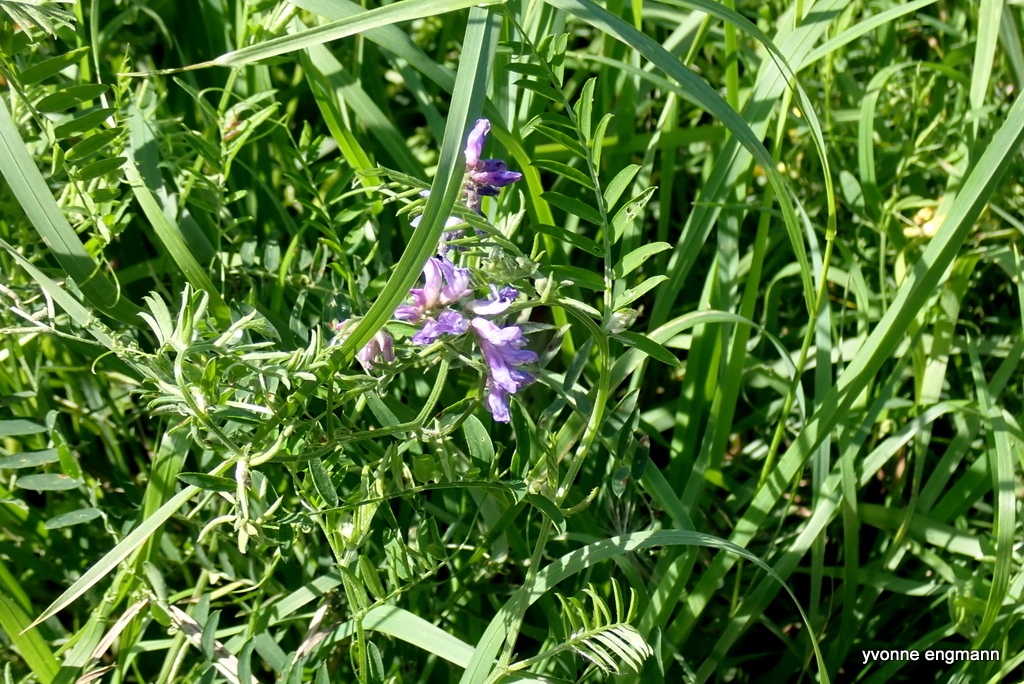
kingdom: Plantae
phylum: Tracheophyta
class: Magnoliopsida
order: Fabales
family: Fabaceae
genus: Vicia
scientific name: Vicia cracca
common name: Bird vetch
